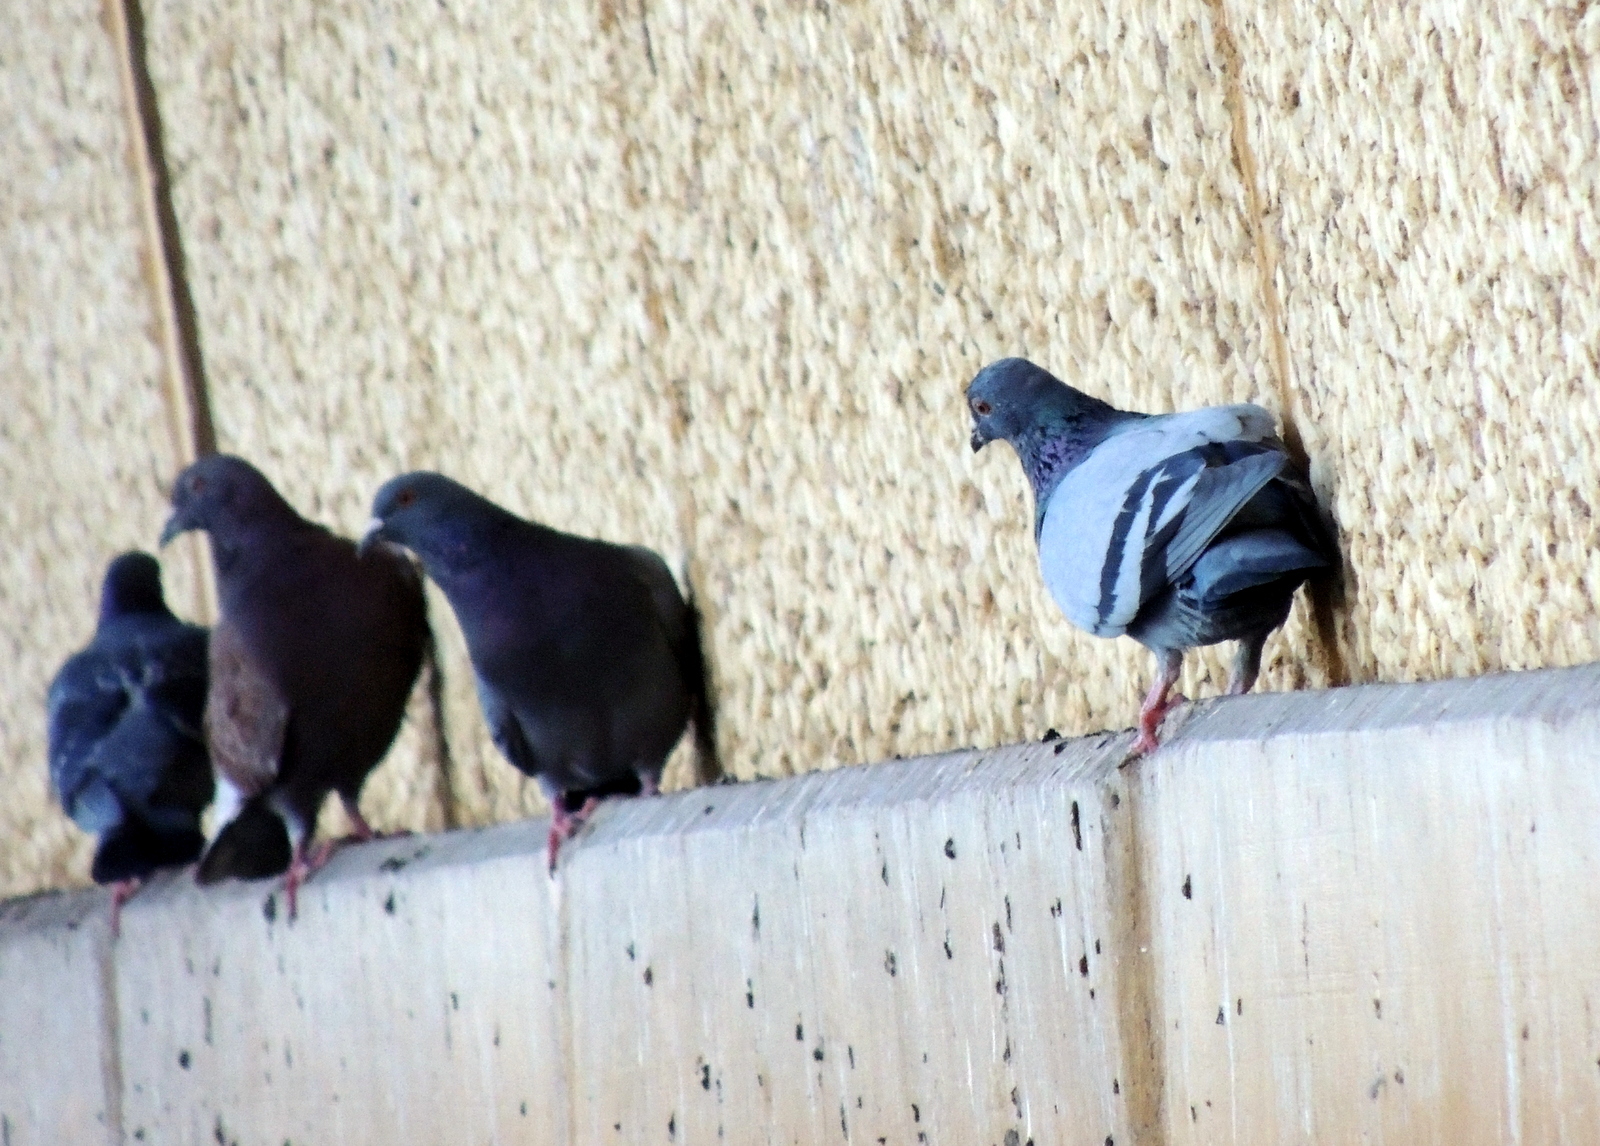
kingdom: Animalia
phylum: Chordata
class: Aves
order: Columbiformes
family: Columbidae
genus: Columba
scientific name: Columba livia
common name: Rock pigeon
